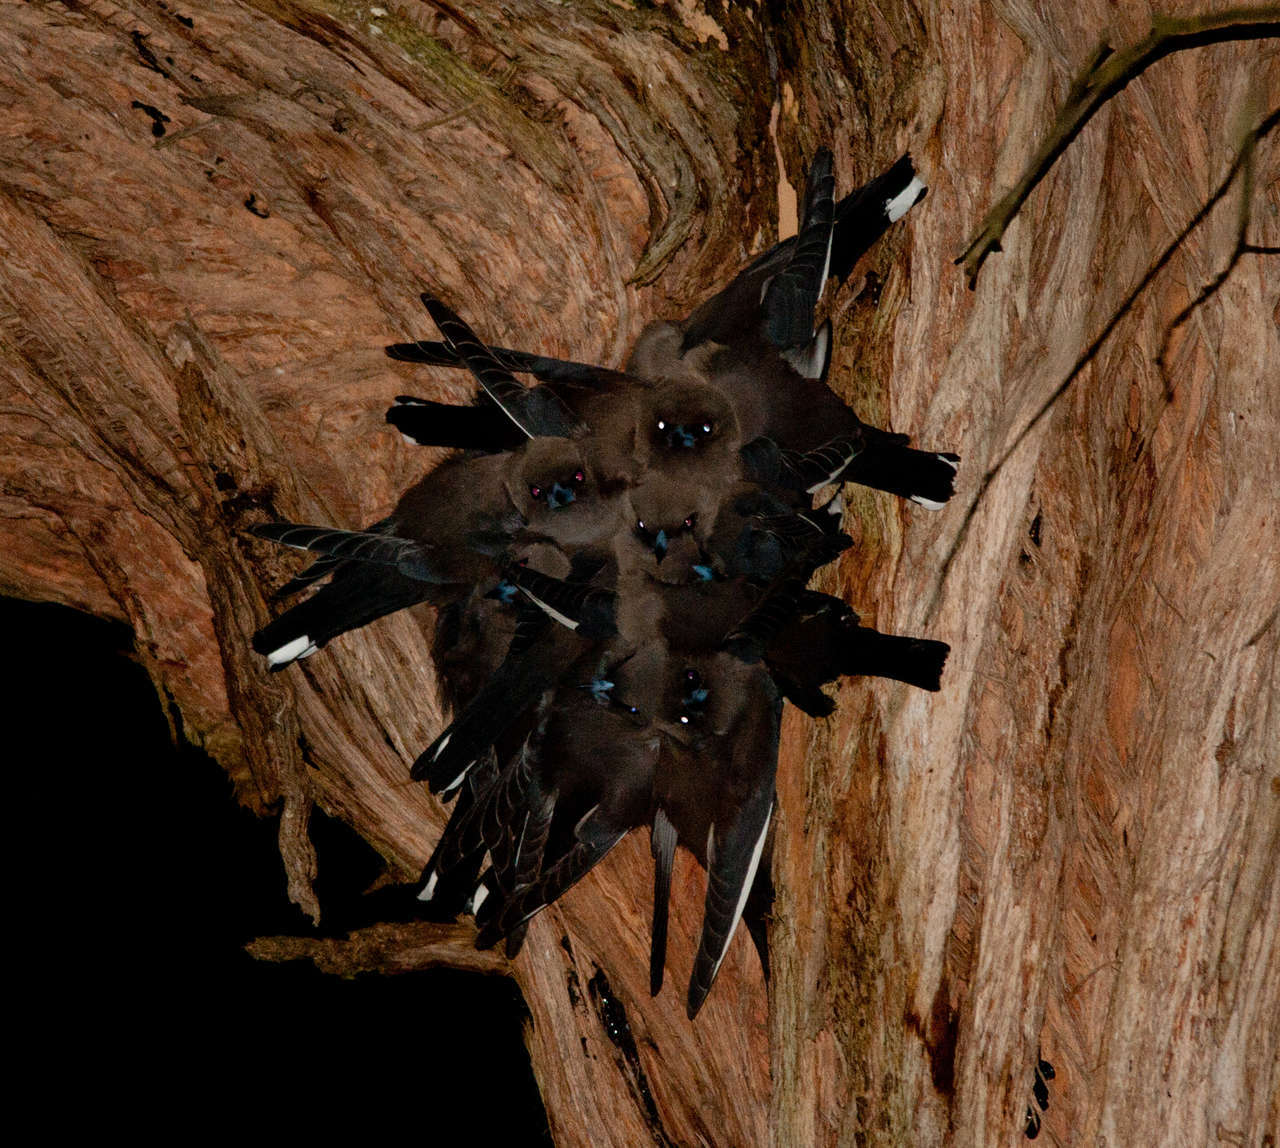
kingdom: Animalia
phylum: Chordata
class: Aves
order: Passeriformes
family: Artamidae
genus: Artamus
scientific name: Artamus cyanopterus
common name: Dusky woodswallow
